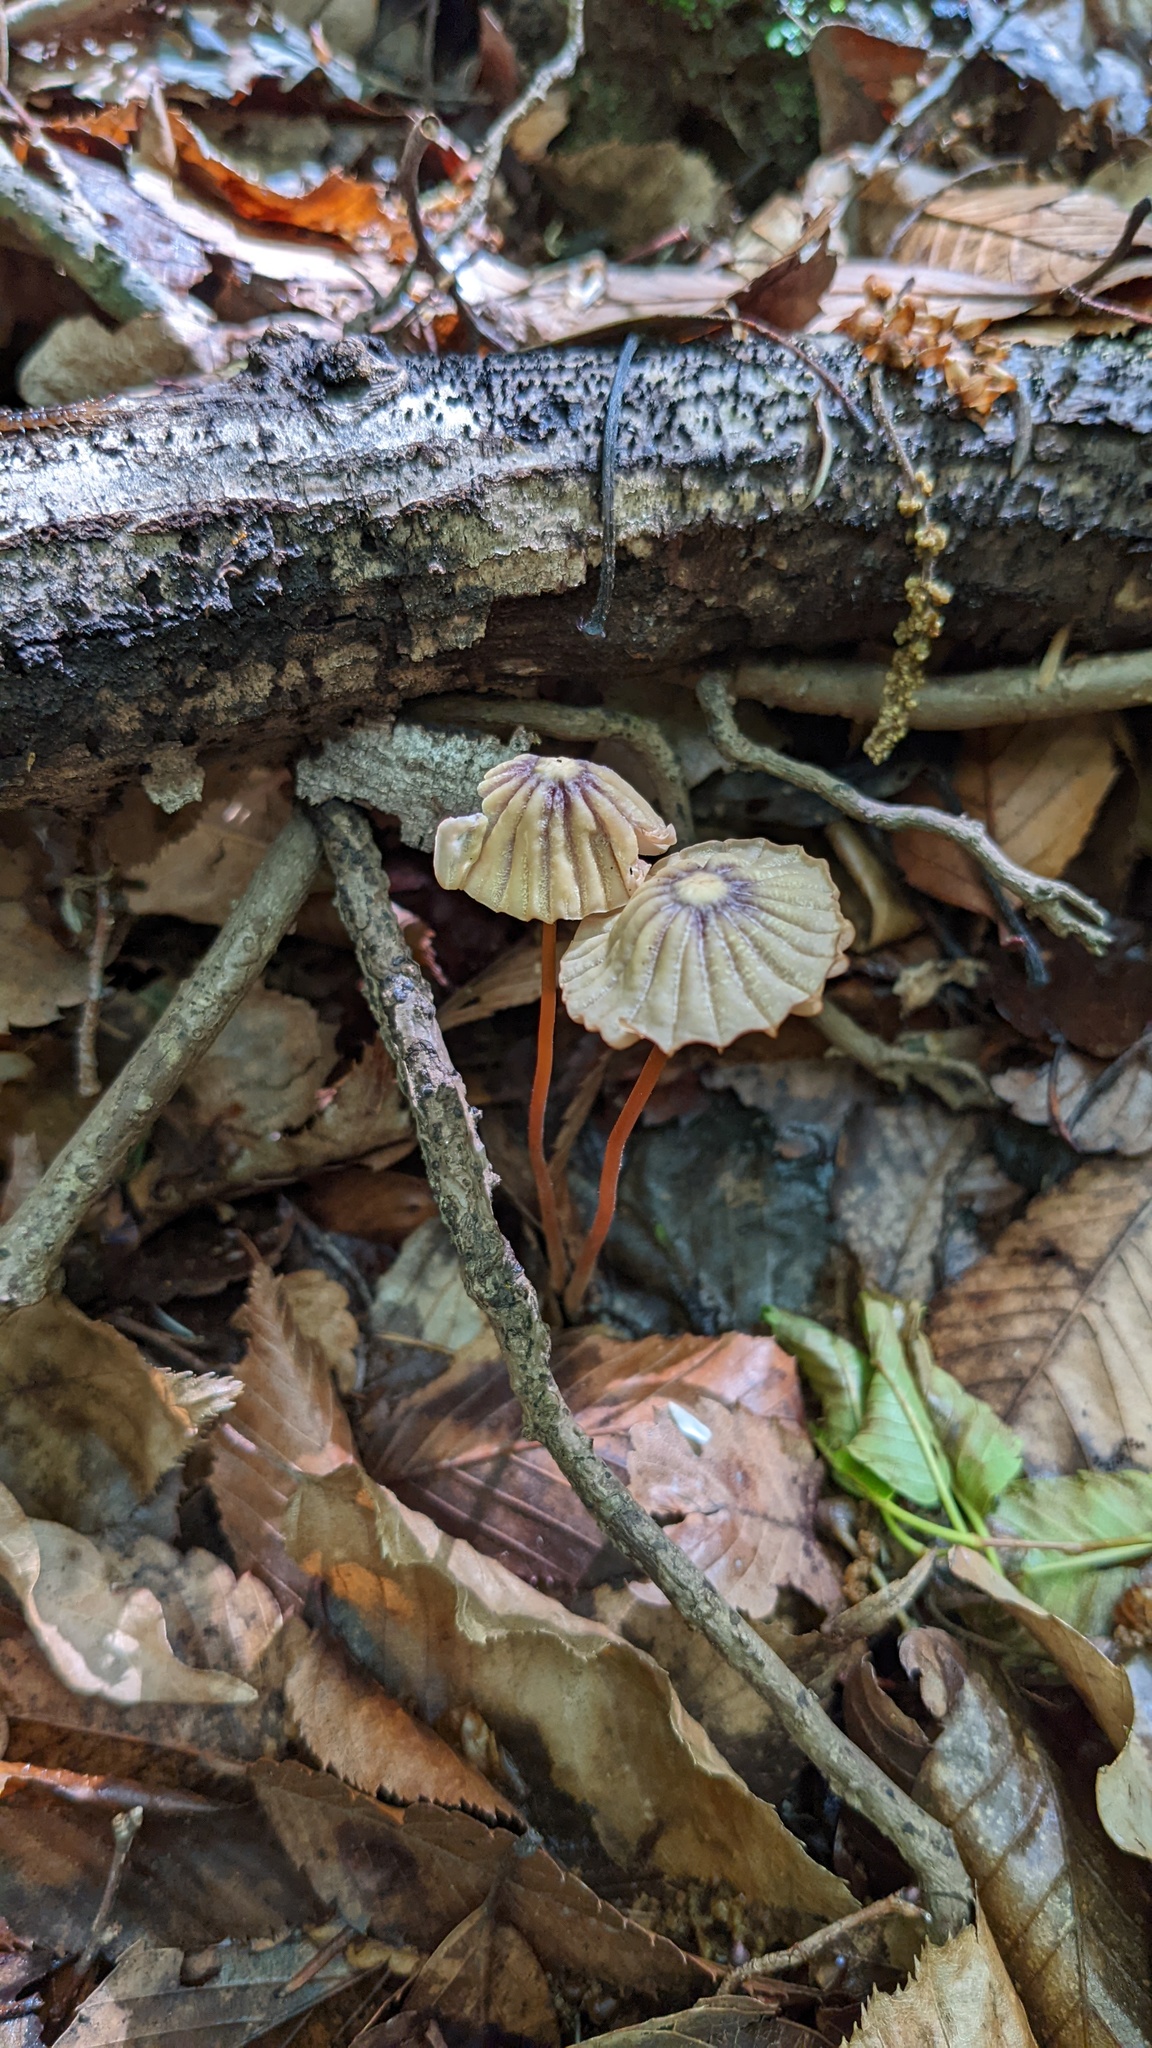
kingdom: Fungi
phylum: Basidiomycota
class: Agaricomycetes
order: Agaricales
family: Marasmiaceae
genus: Marasmius
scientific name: Marasmius purpureostriatus
